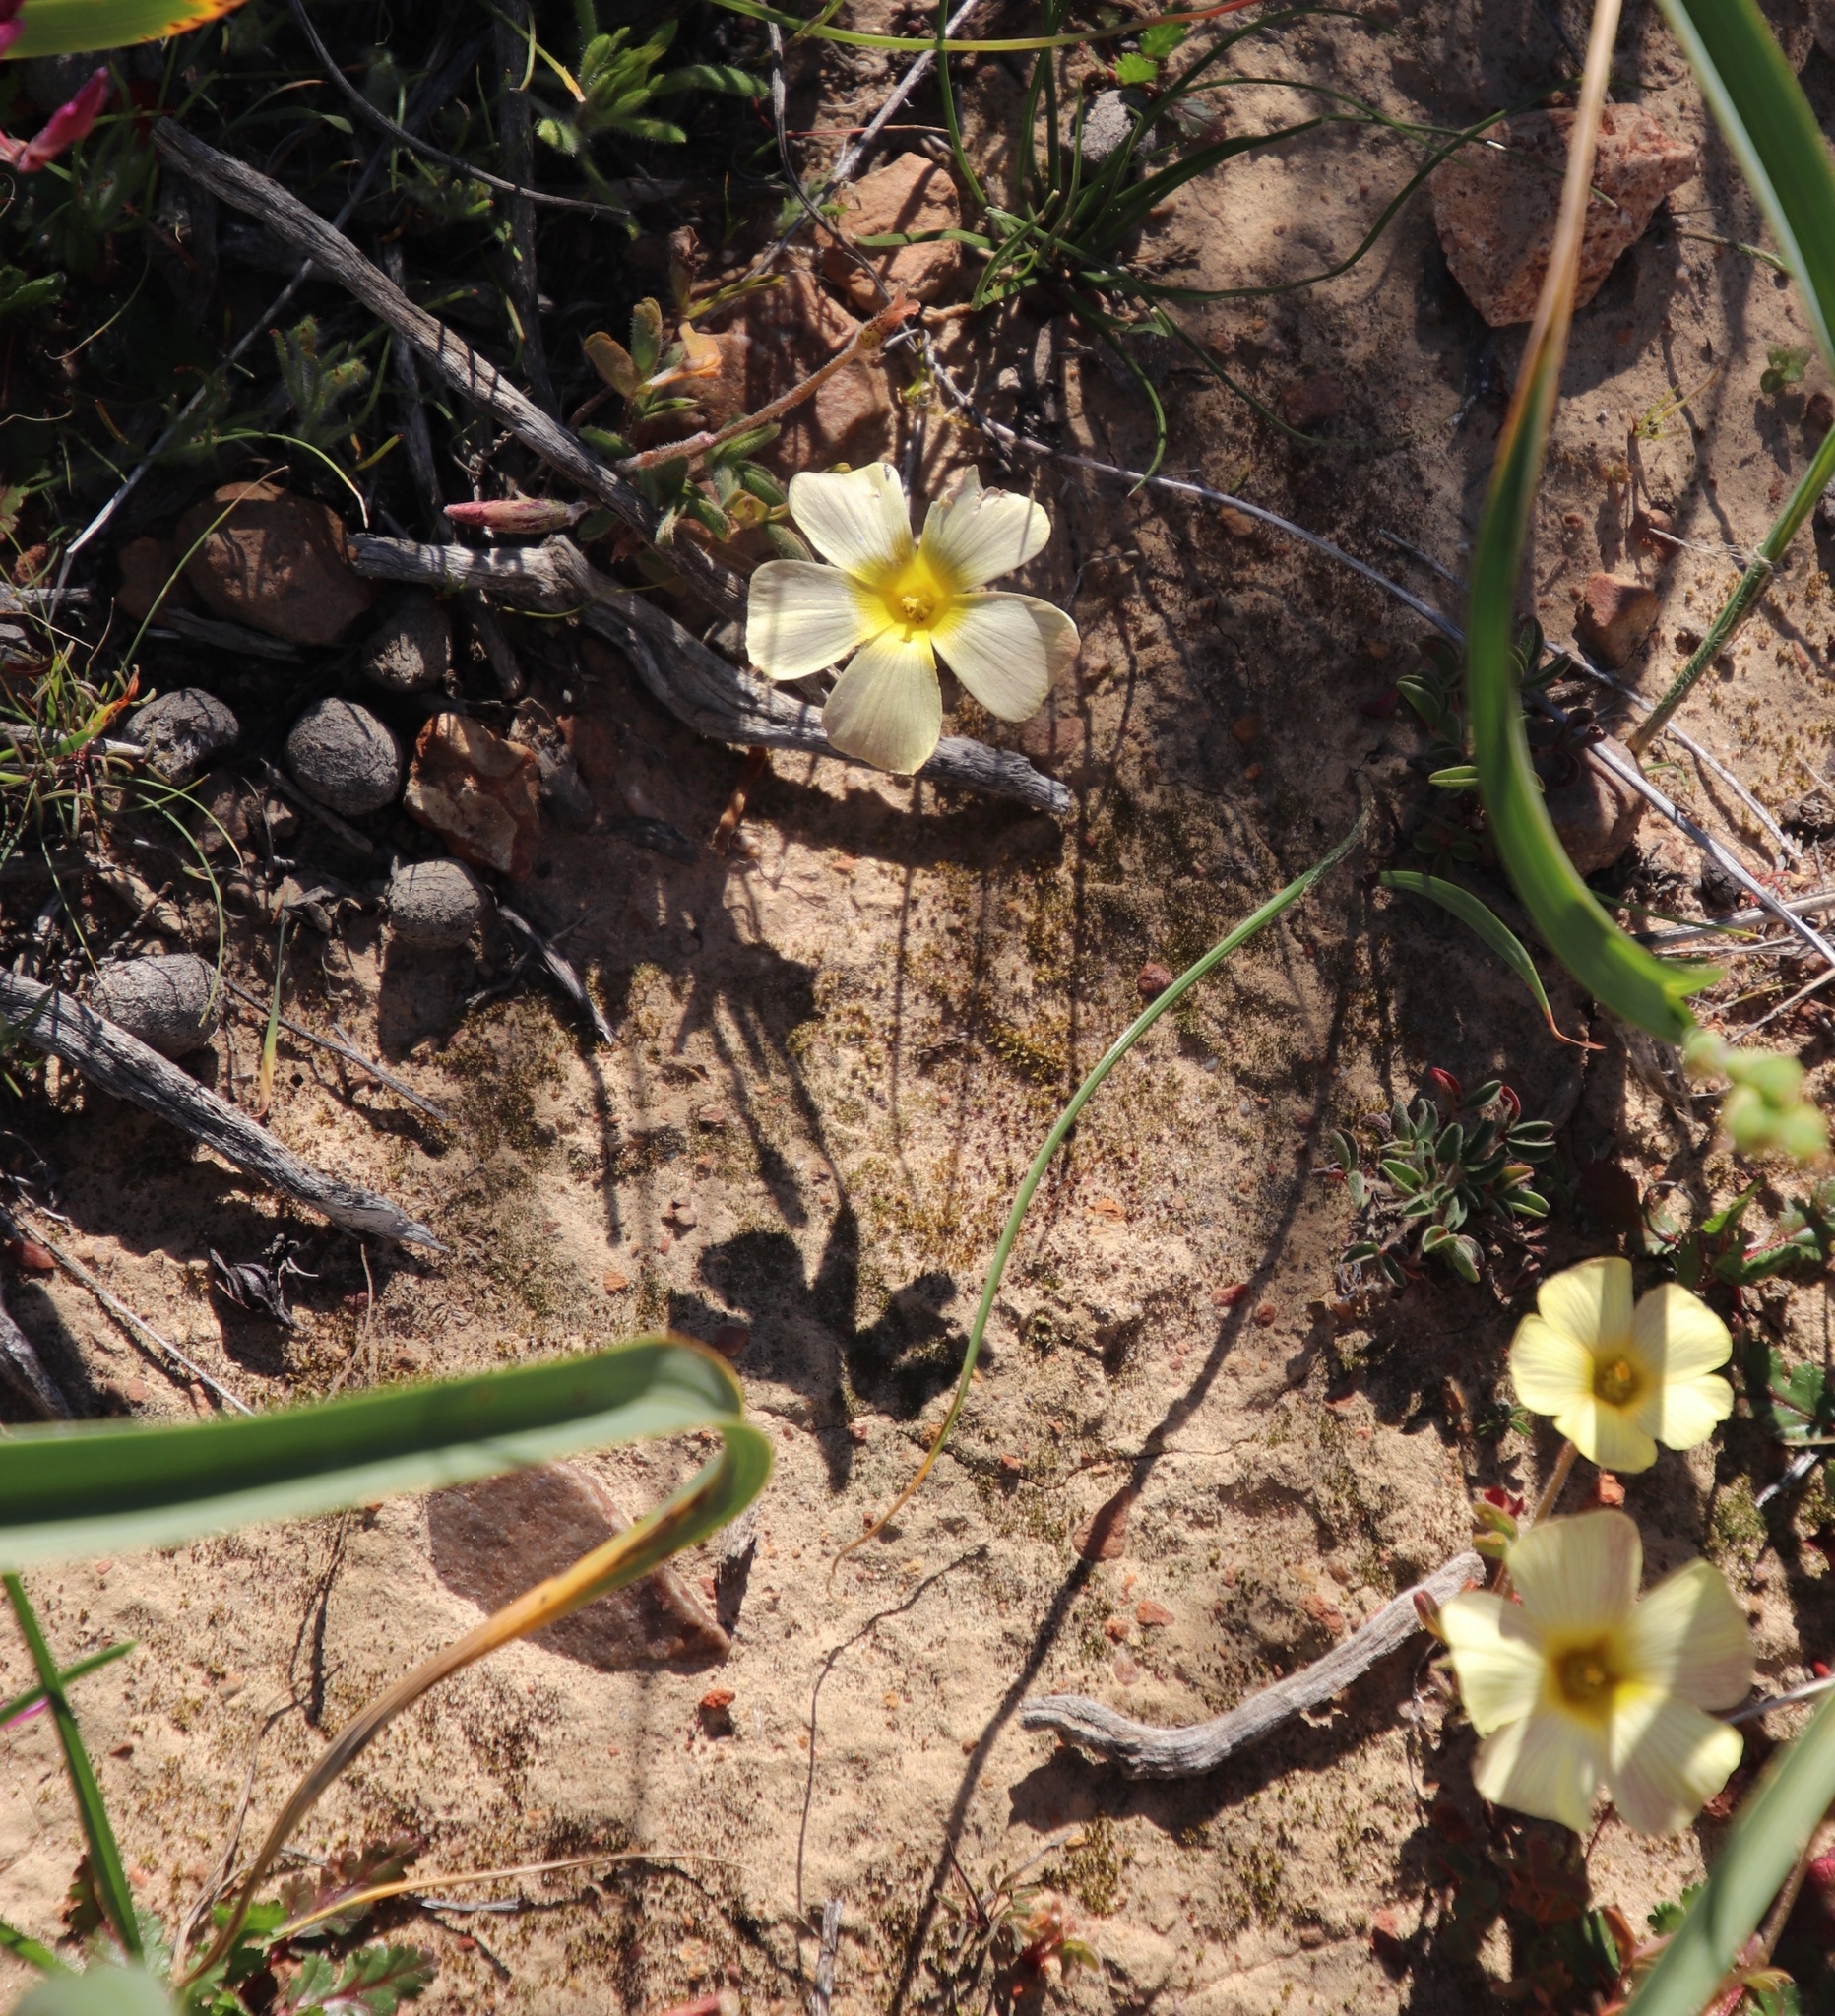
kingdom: Plantae
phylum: Tracheophyta
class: Magnoliopsida
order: Oxalidales
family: Oxalidaceae
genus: Oxalis
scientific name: Oxalis obtusa
